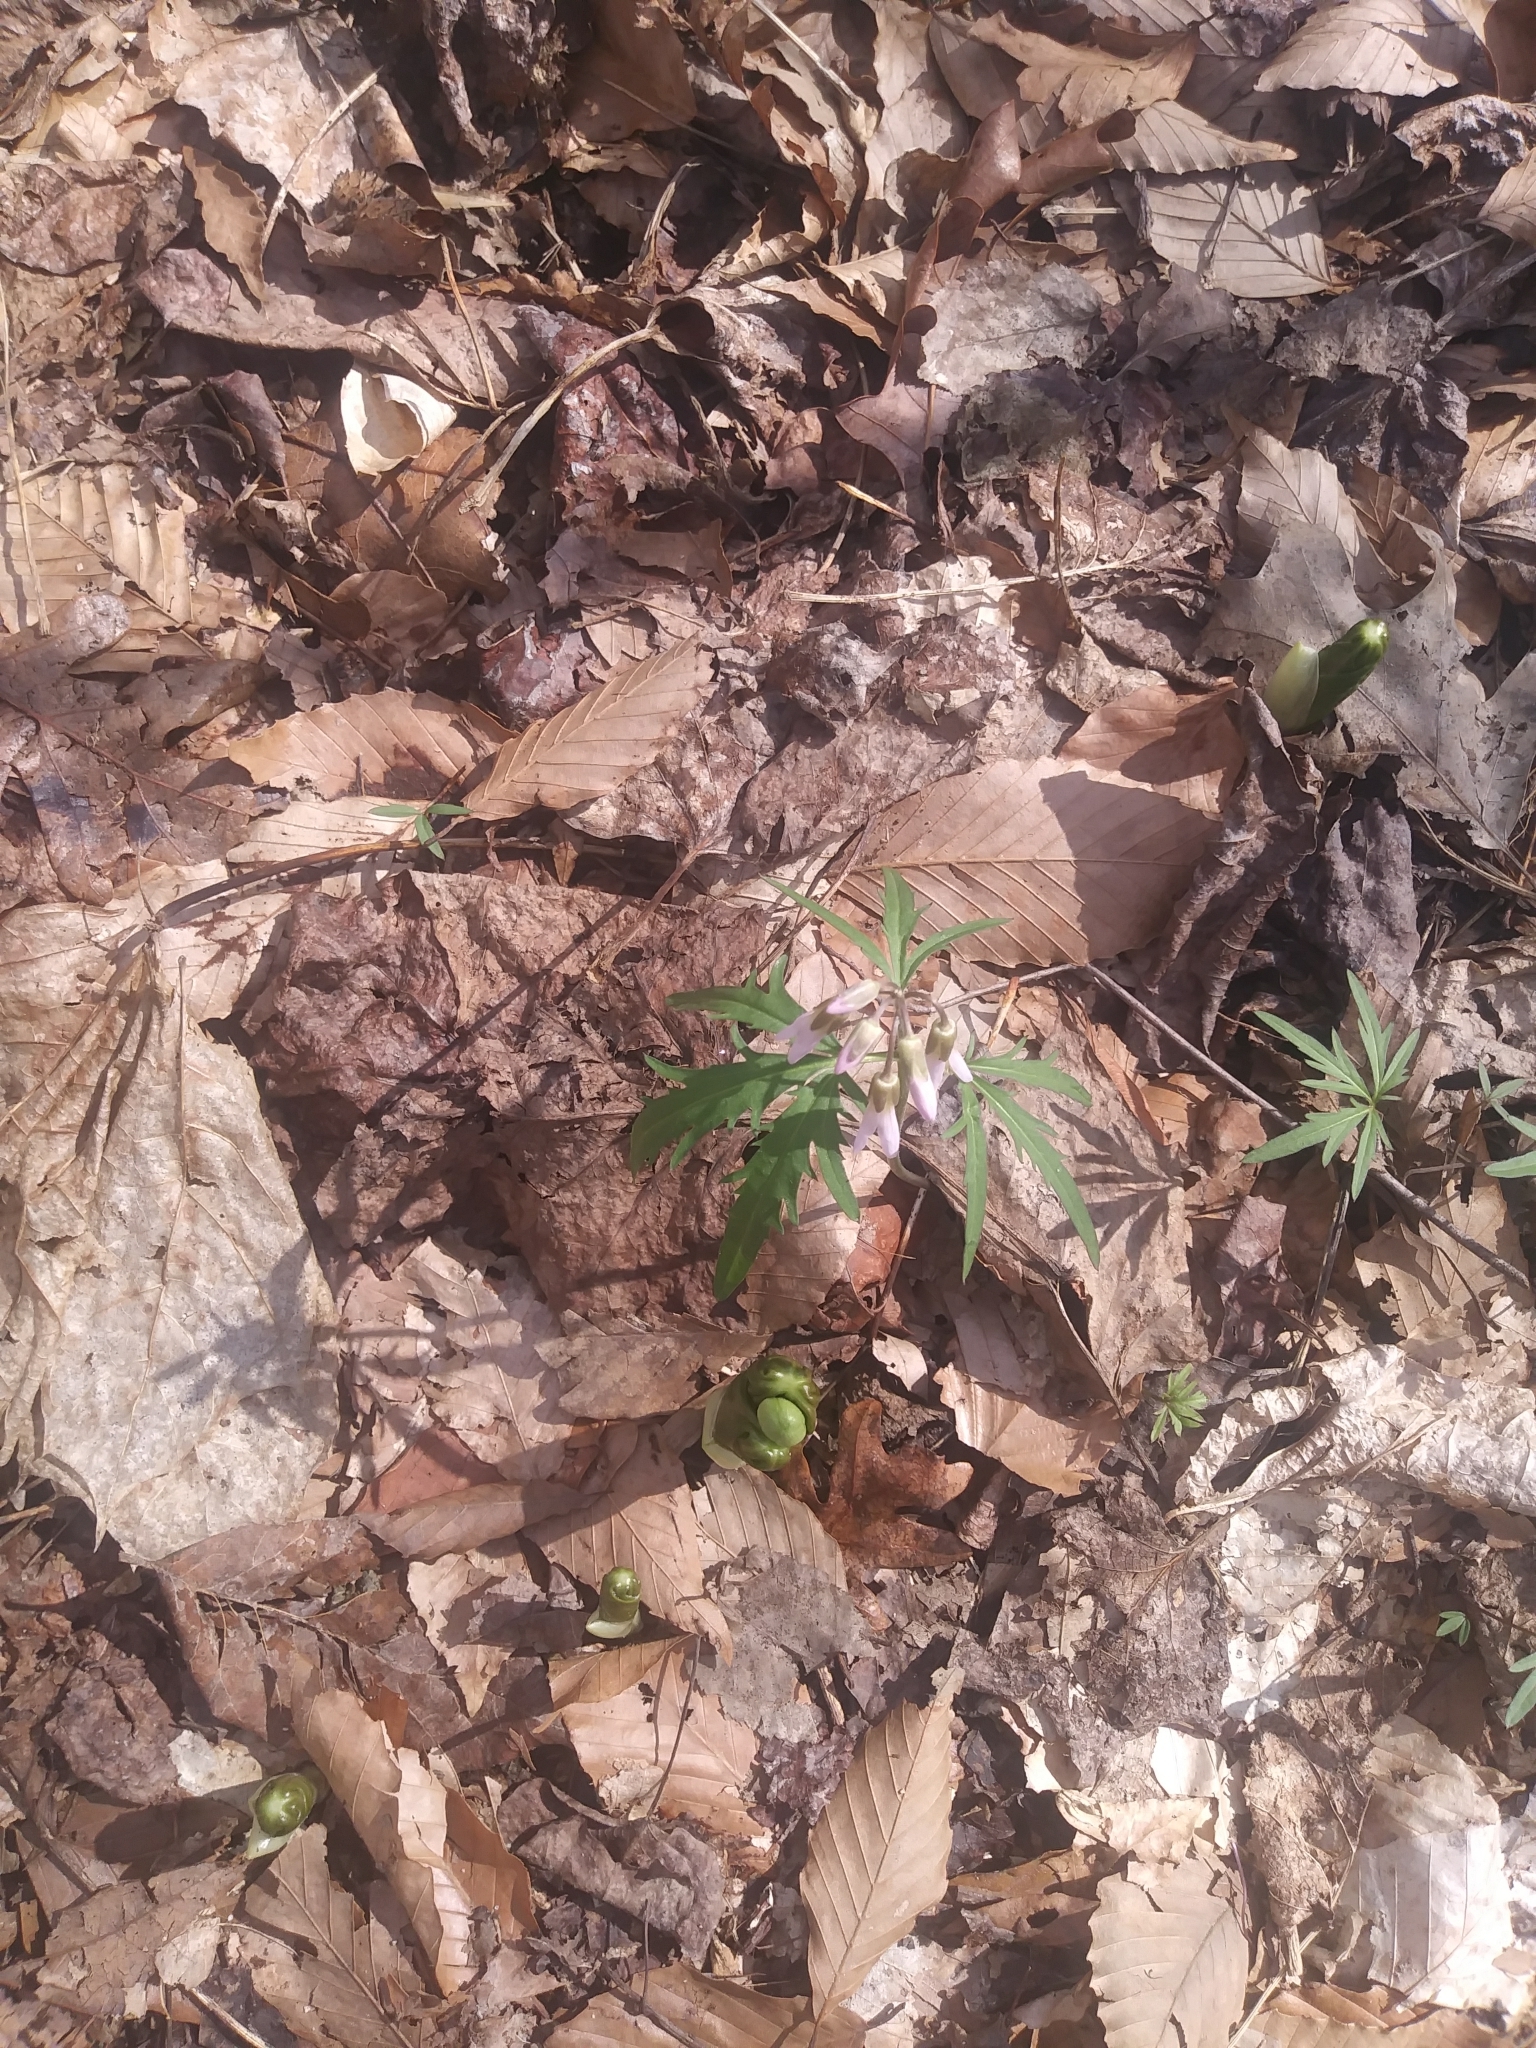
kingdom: Plantae
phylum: Tracheophyta
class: Magnoliopsida
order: Brassicales
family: Brassicaceae
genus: Cardamine
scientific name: Cardamine concatenata
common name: Cut-leaf toothcup
